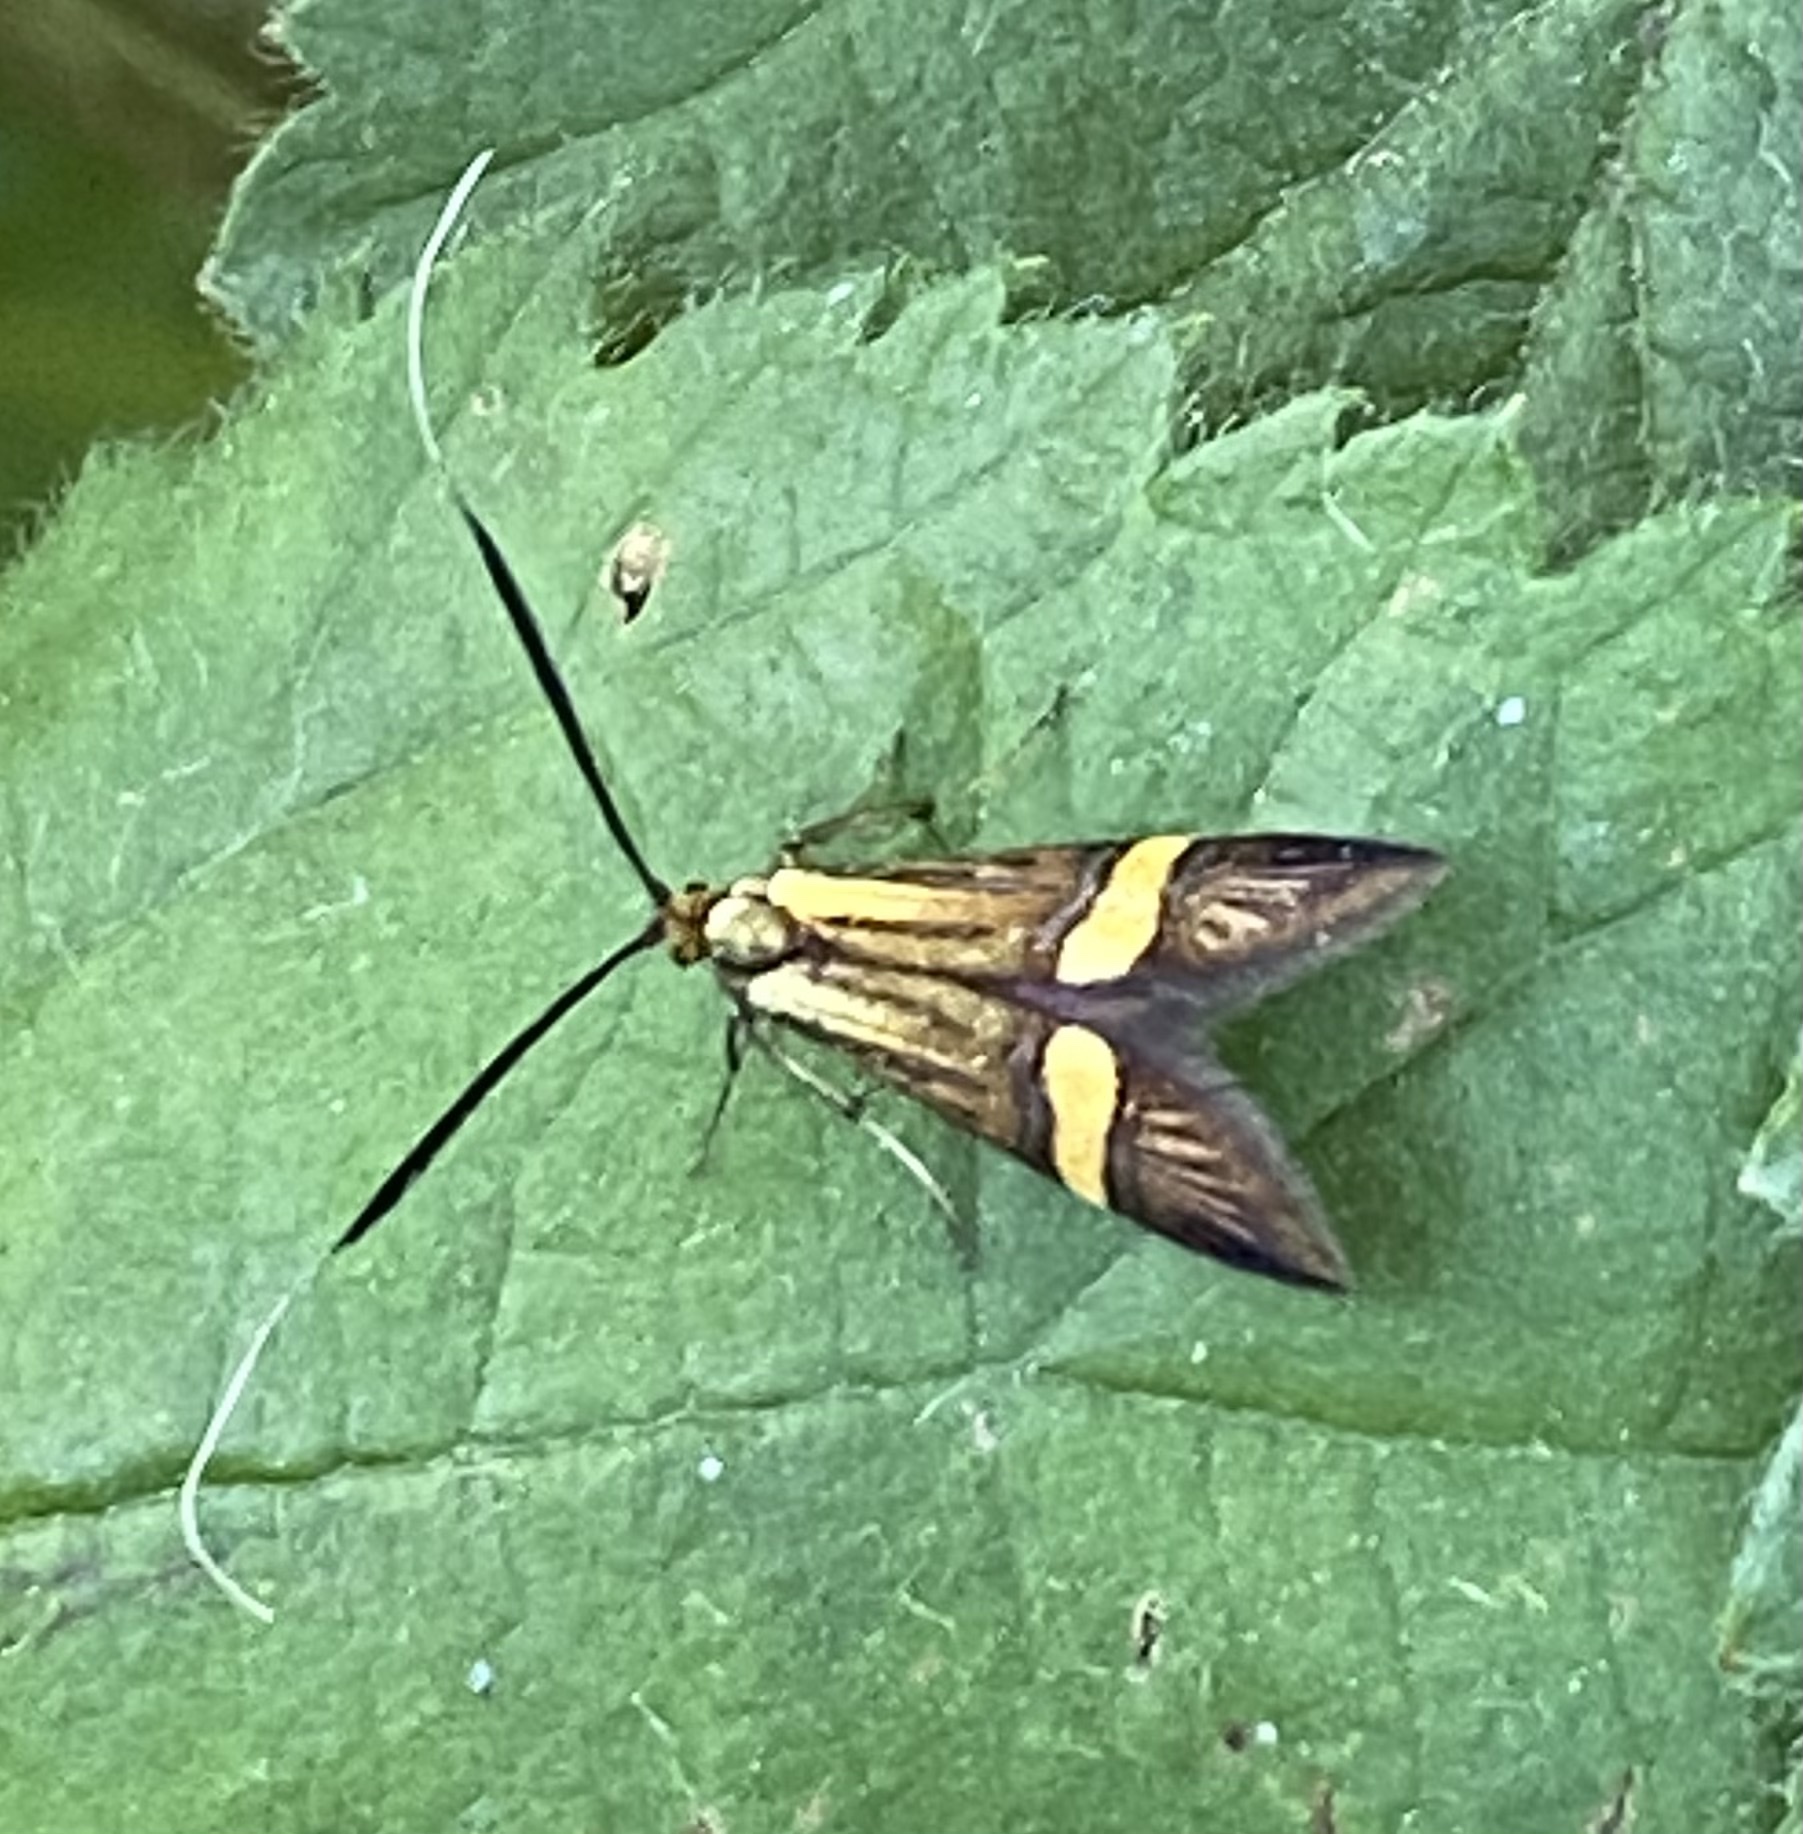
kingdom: Animalia
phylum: Arthropoda
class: Insecta
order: Lepidoptera
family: Adelidae
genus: Nemophora
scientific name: Nemophora degeerella
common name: Yellow-barred long-horn
